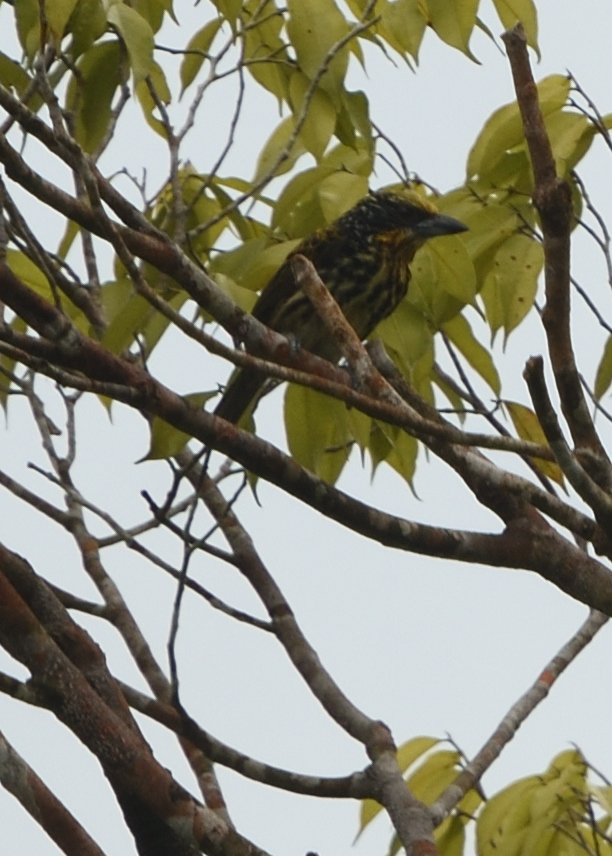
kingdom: Animalia
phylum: Chordata
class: Aves
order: Piciformes
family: Capitonidae
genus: Capito
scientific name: Capito auratus
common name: Gilded barbet
